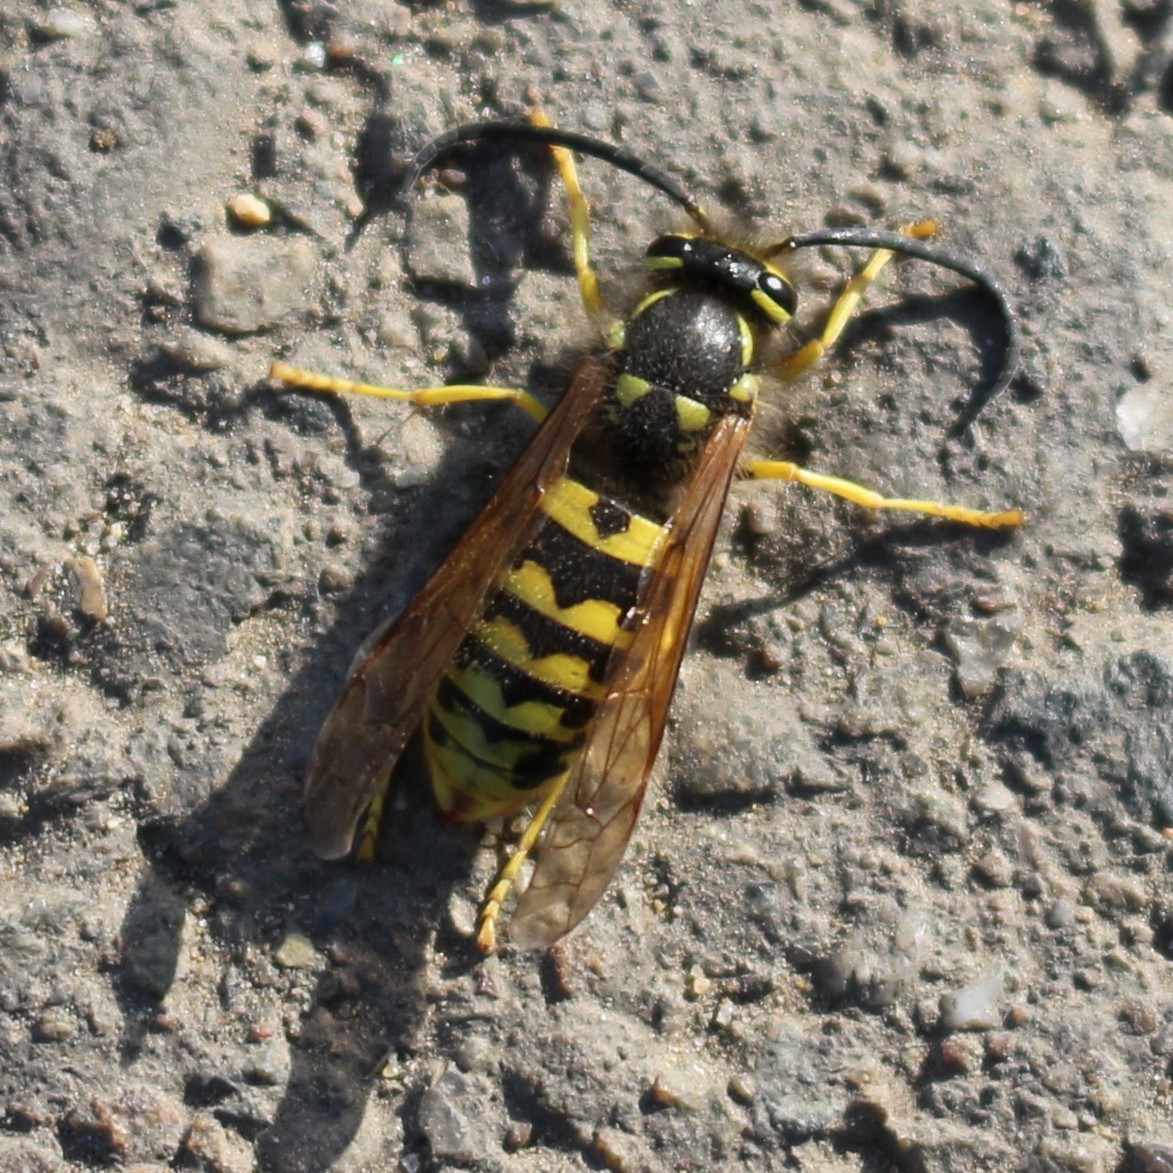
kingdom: Animalia
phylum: Arthropoda
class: Insecta
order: Hymenoptera
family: Vespidae
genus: Vespula
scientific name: Vespula germanica
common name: German wasp
